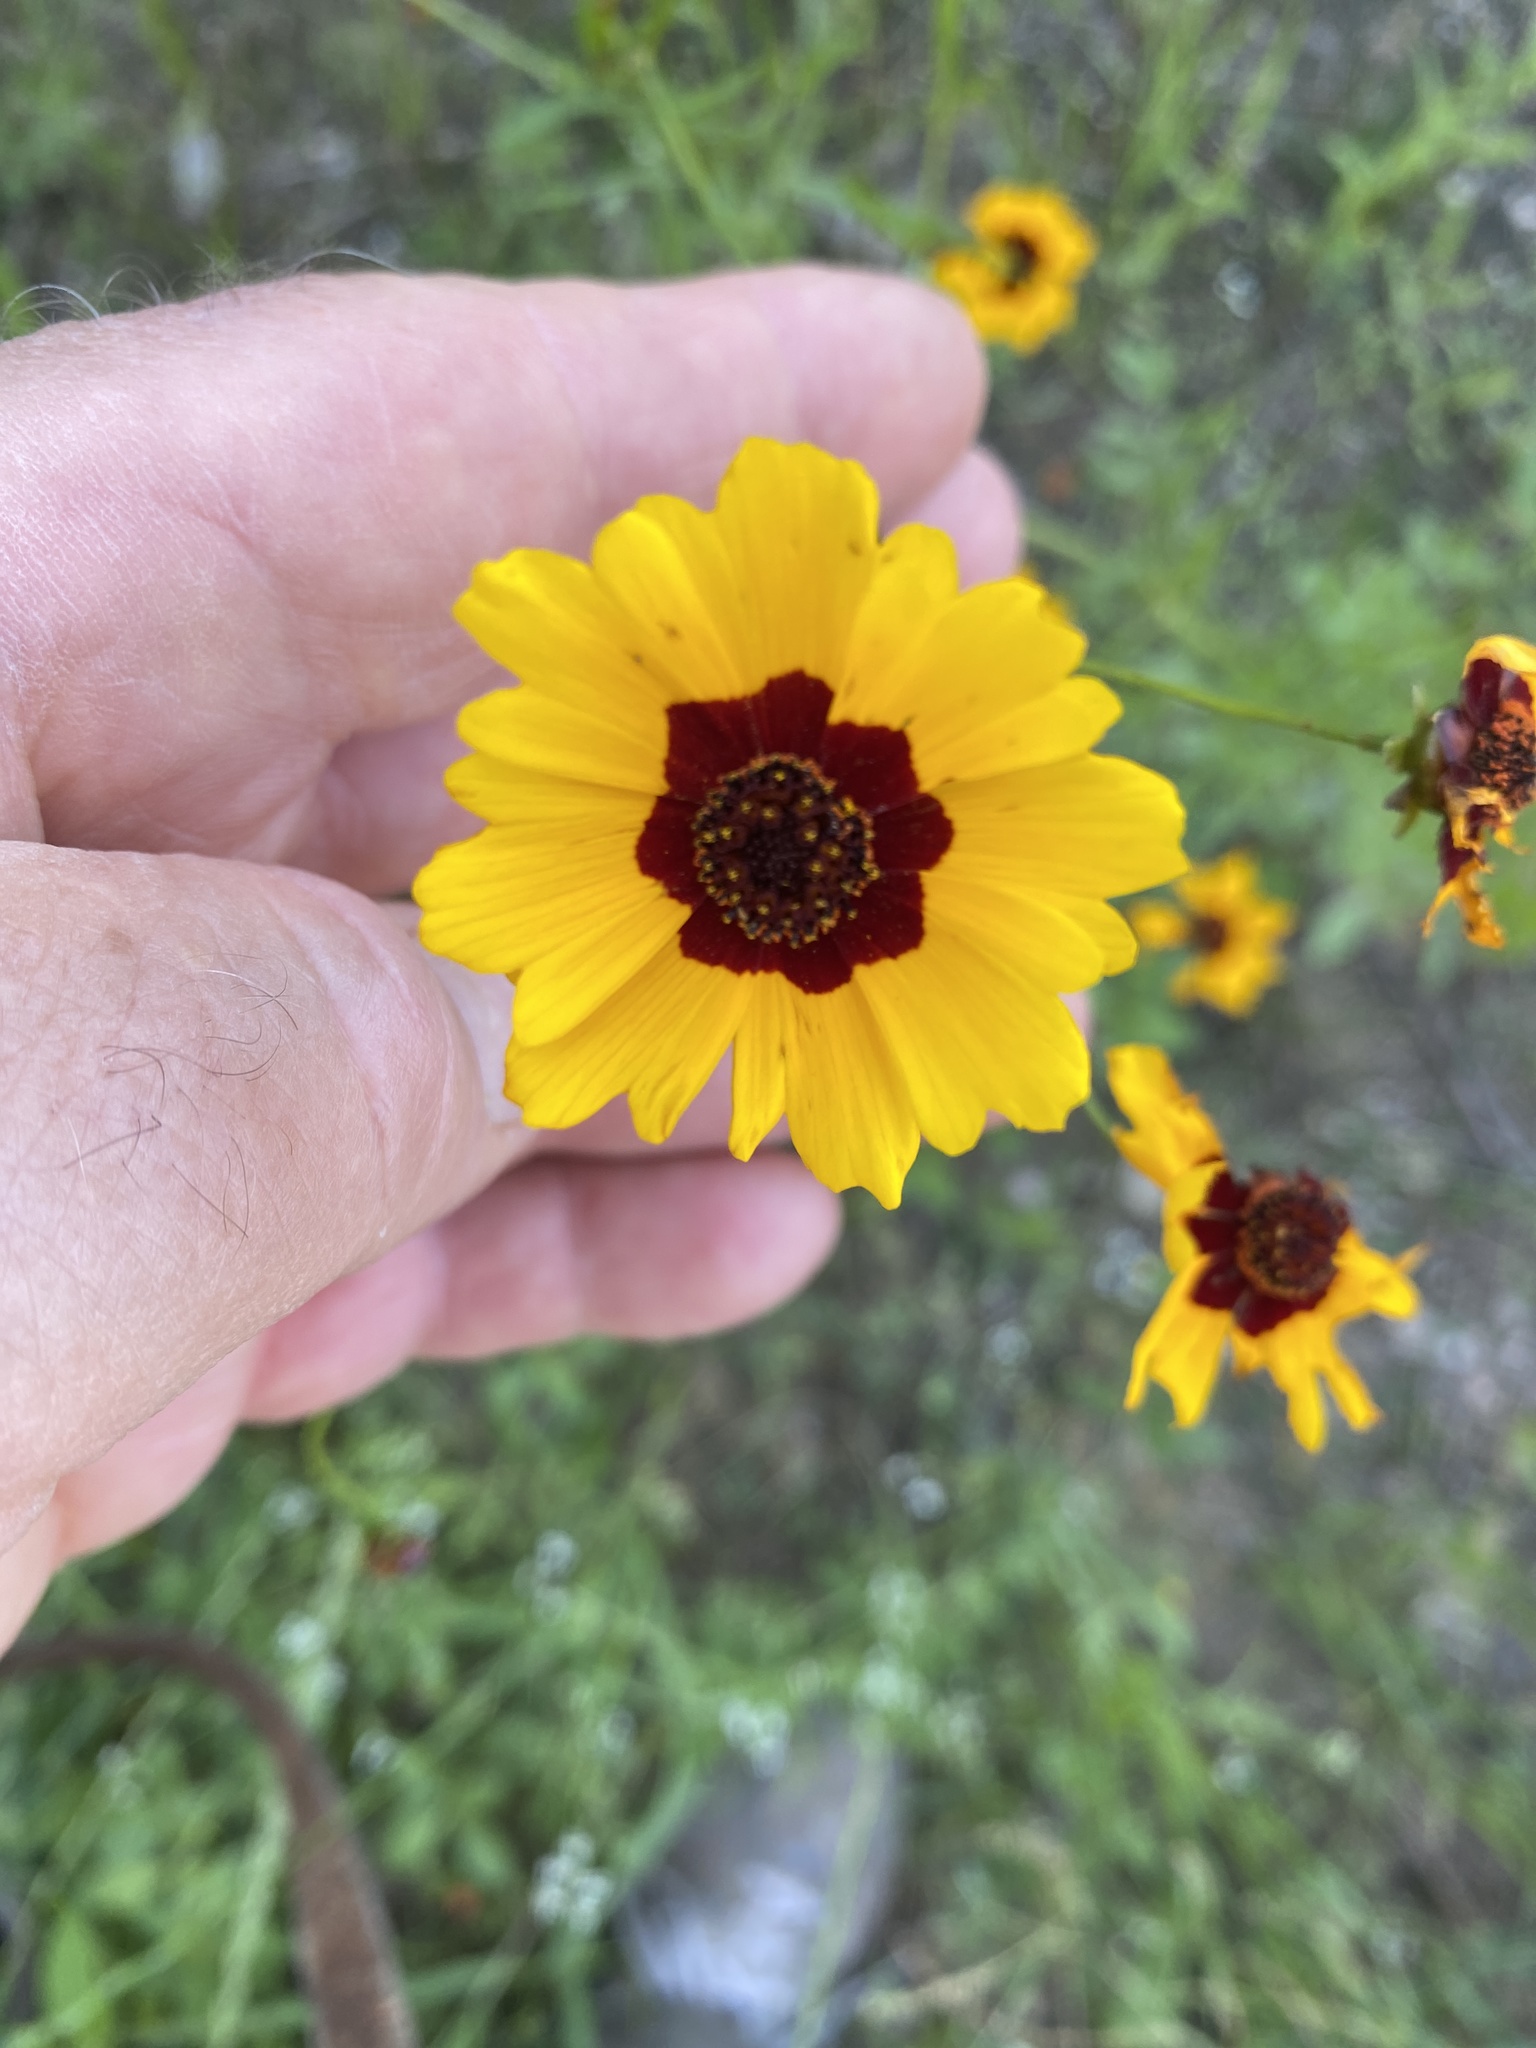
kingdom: Plantae
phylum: Tracheophyta
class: Magnoliopsida
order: Asterales
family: Asteraceae
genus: Coreopsis
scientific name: Coreopsis tinctoria
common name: Garden tickseed
